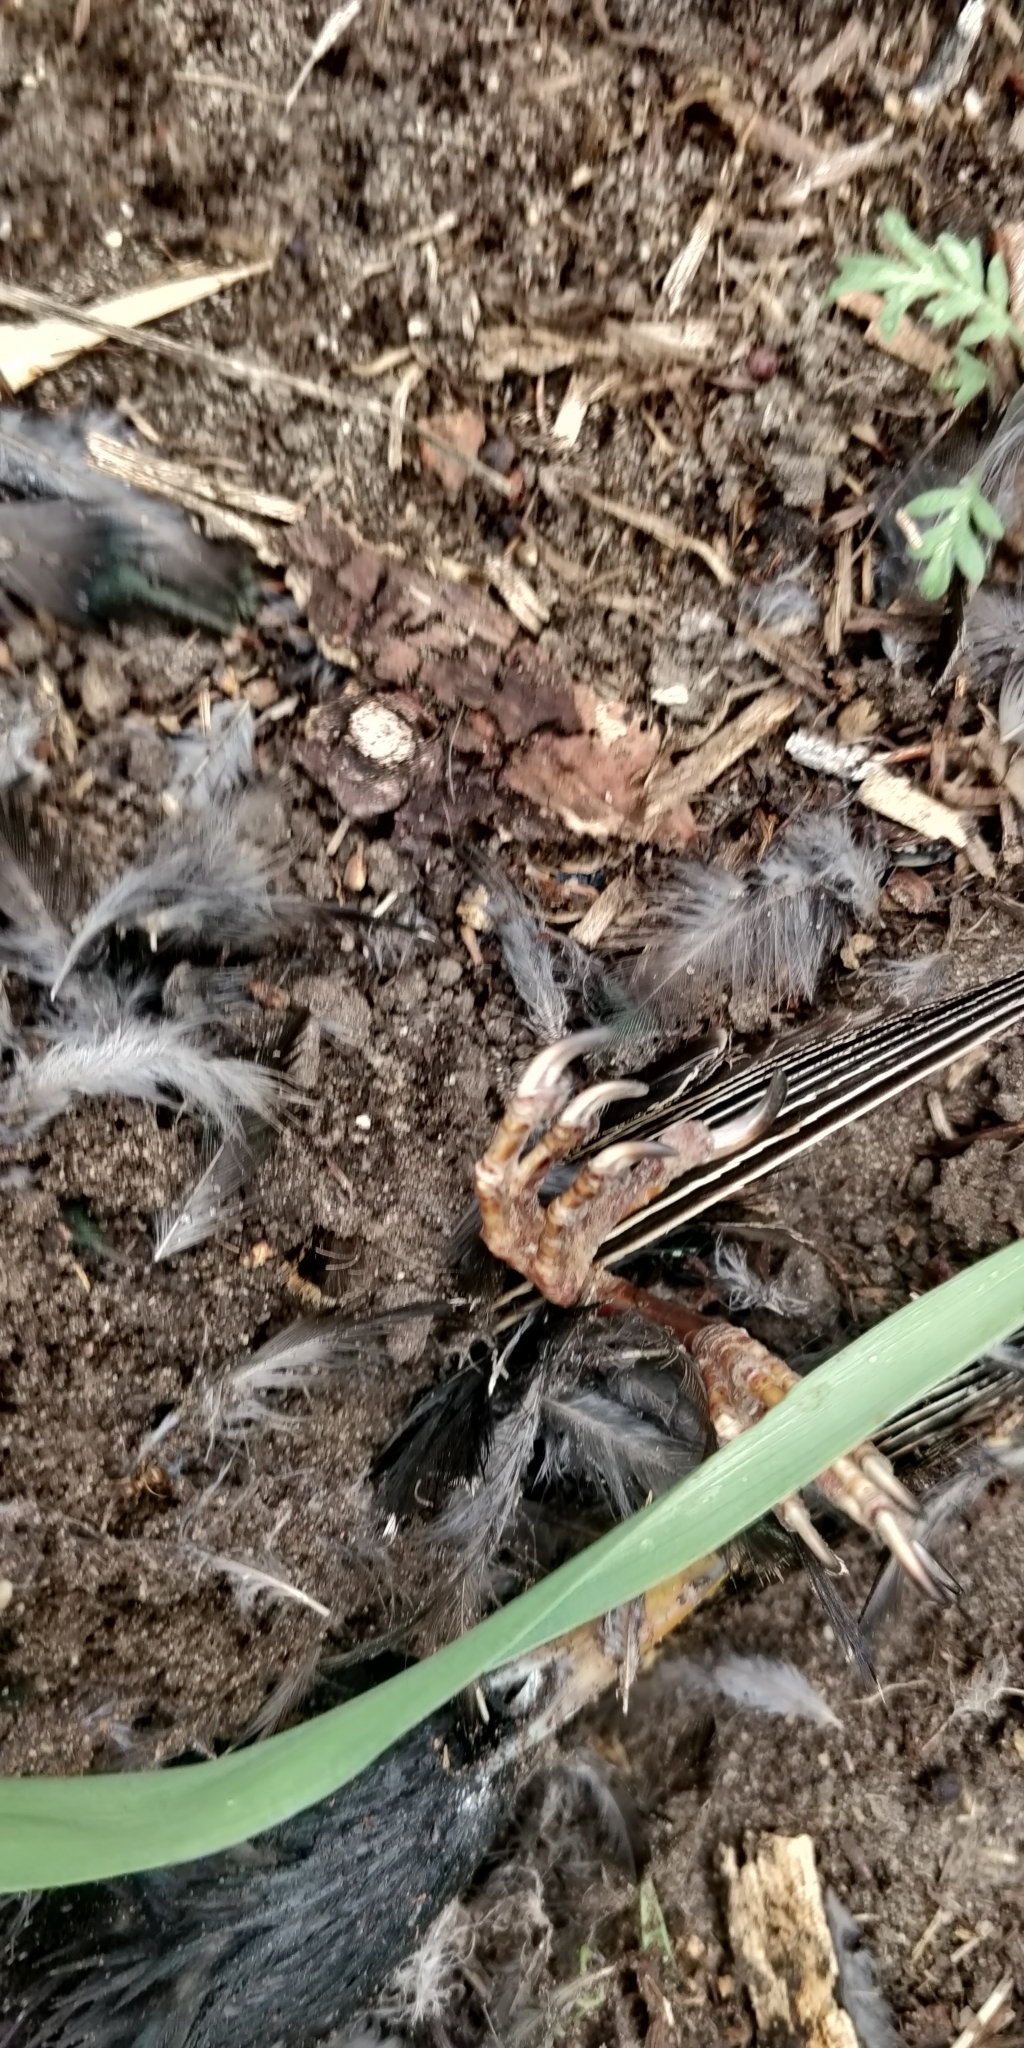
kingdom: Animalia
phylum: Arthropoda
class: Insecta
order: Coleoptera
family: Staphylinidae
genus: Nicrophorus
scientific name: Nicrophorus marginatus
